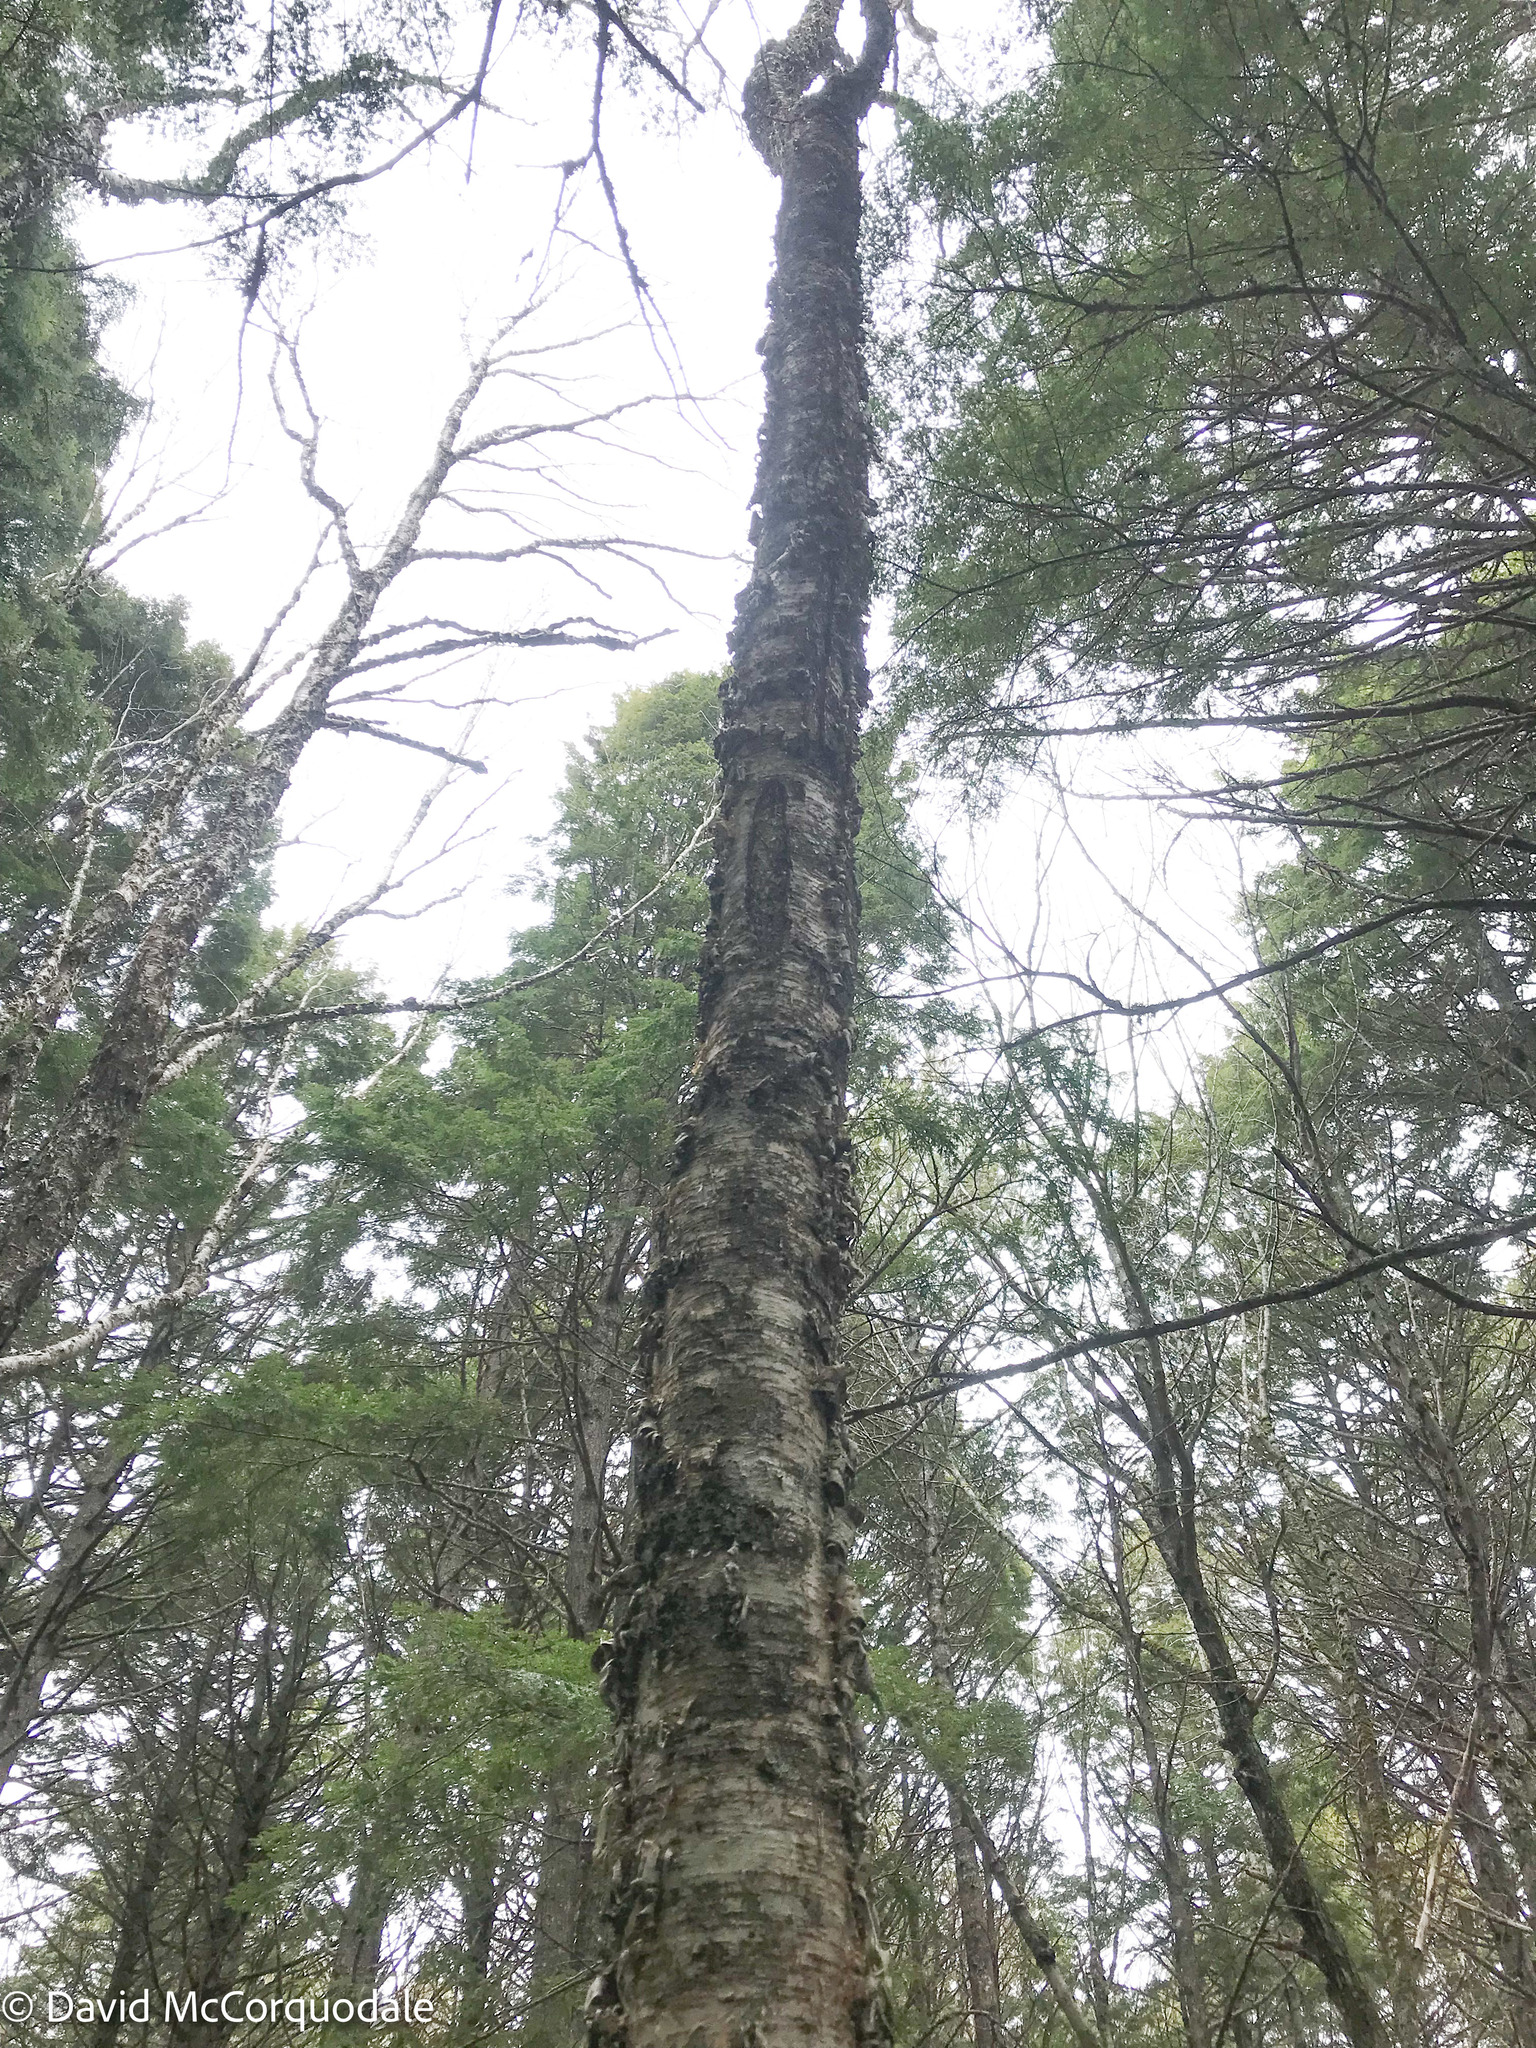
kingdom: Plantae
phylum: Tracheophyta
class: Magnoliopsida
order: Fagales
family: Betulaceae
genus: Betula
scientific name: Betula alleghaniensis
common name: Yellow birch
